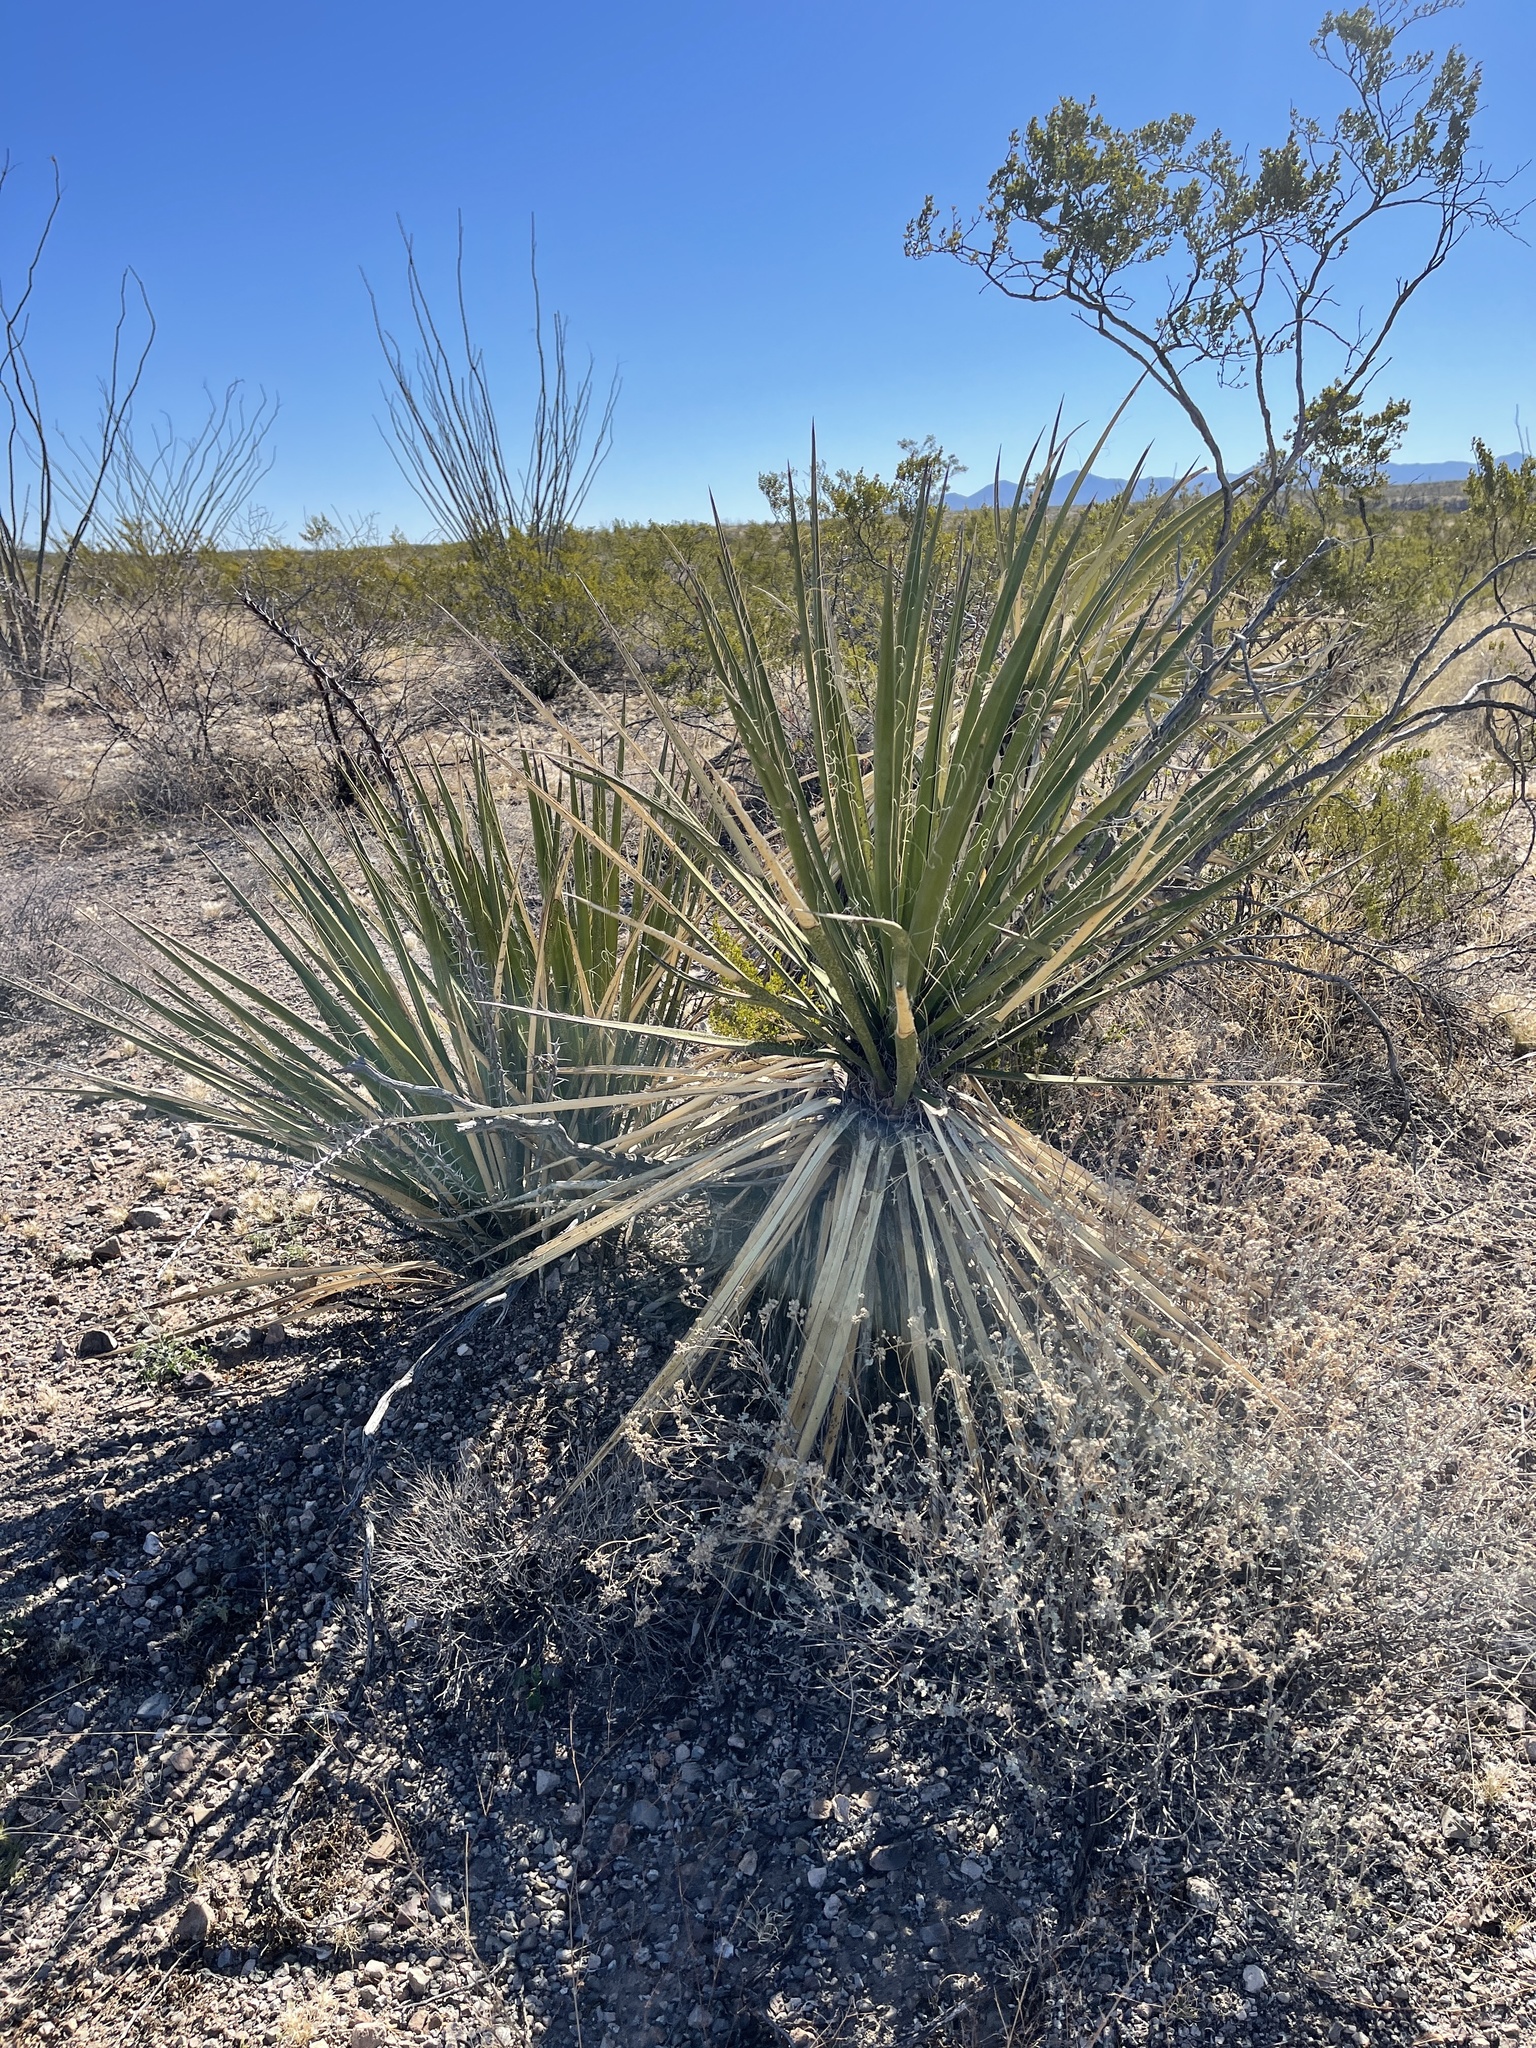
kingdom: Plantae
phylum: Tracheophyta
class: Liliopsida
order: Asparagales
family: Asparagaceae
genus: Yucca
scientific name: Yucca baccata
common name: Banana yucca
